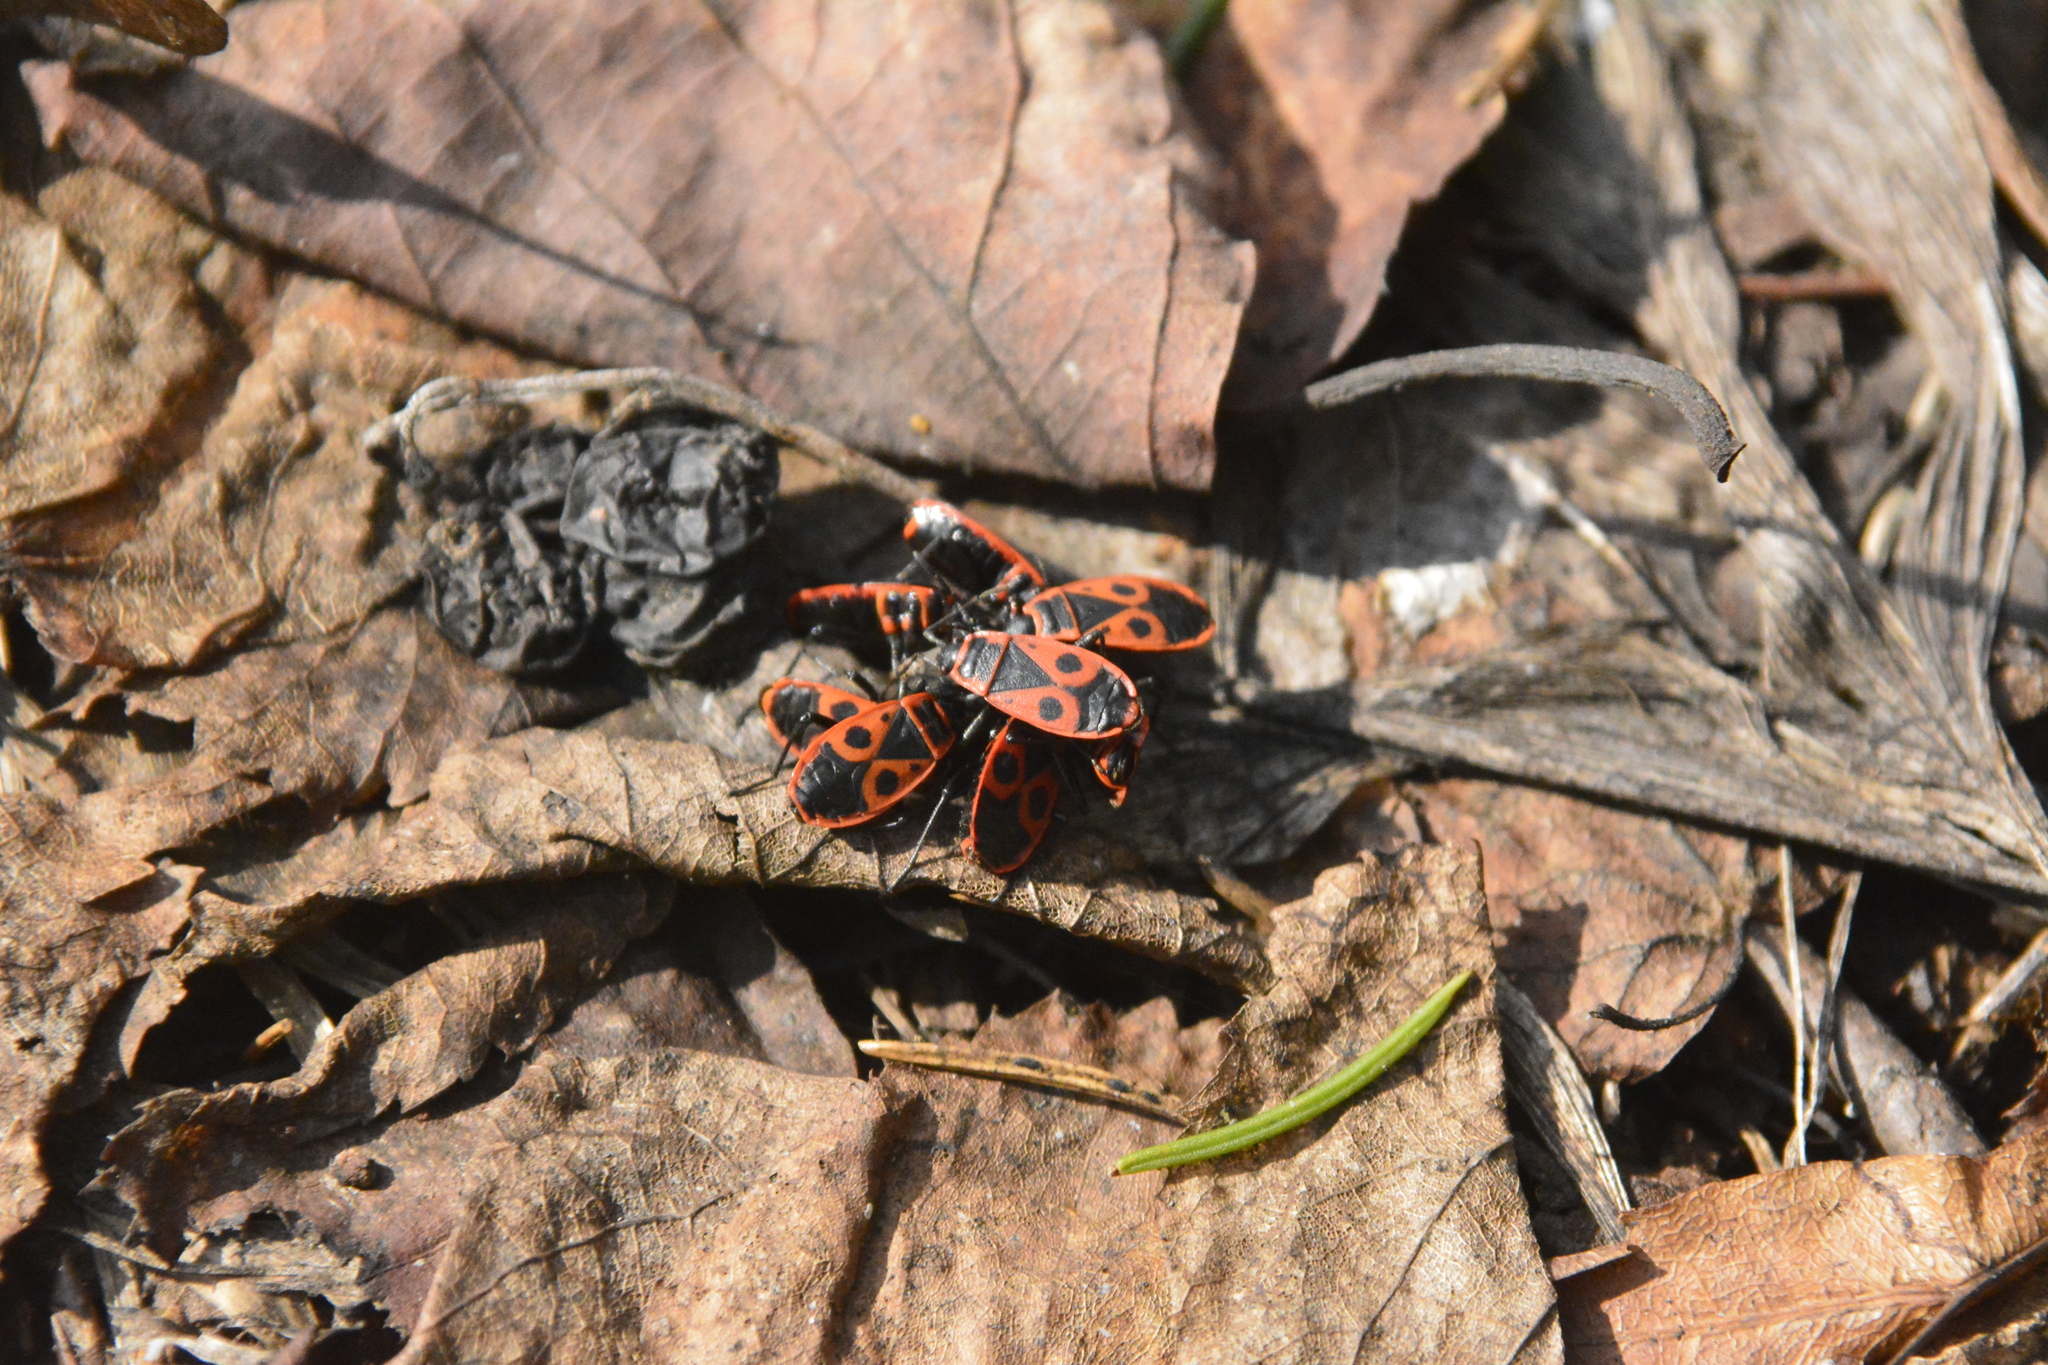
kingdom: Animalia
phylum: Arthropoda
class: Insecta
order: Hemiptera
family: Pyrrhocoridae
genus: Pyrrhocoris
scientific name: Pyrrhocoris apterus
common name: Firebug
